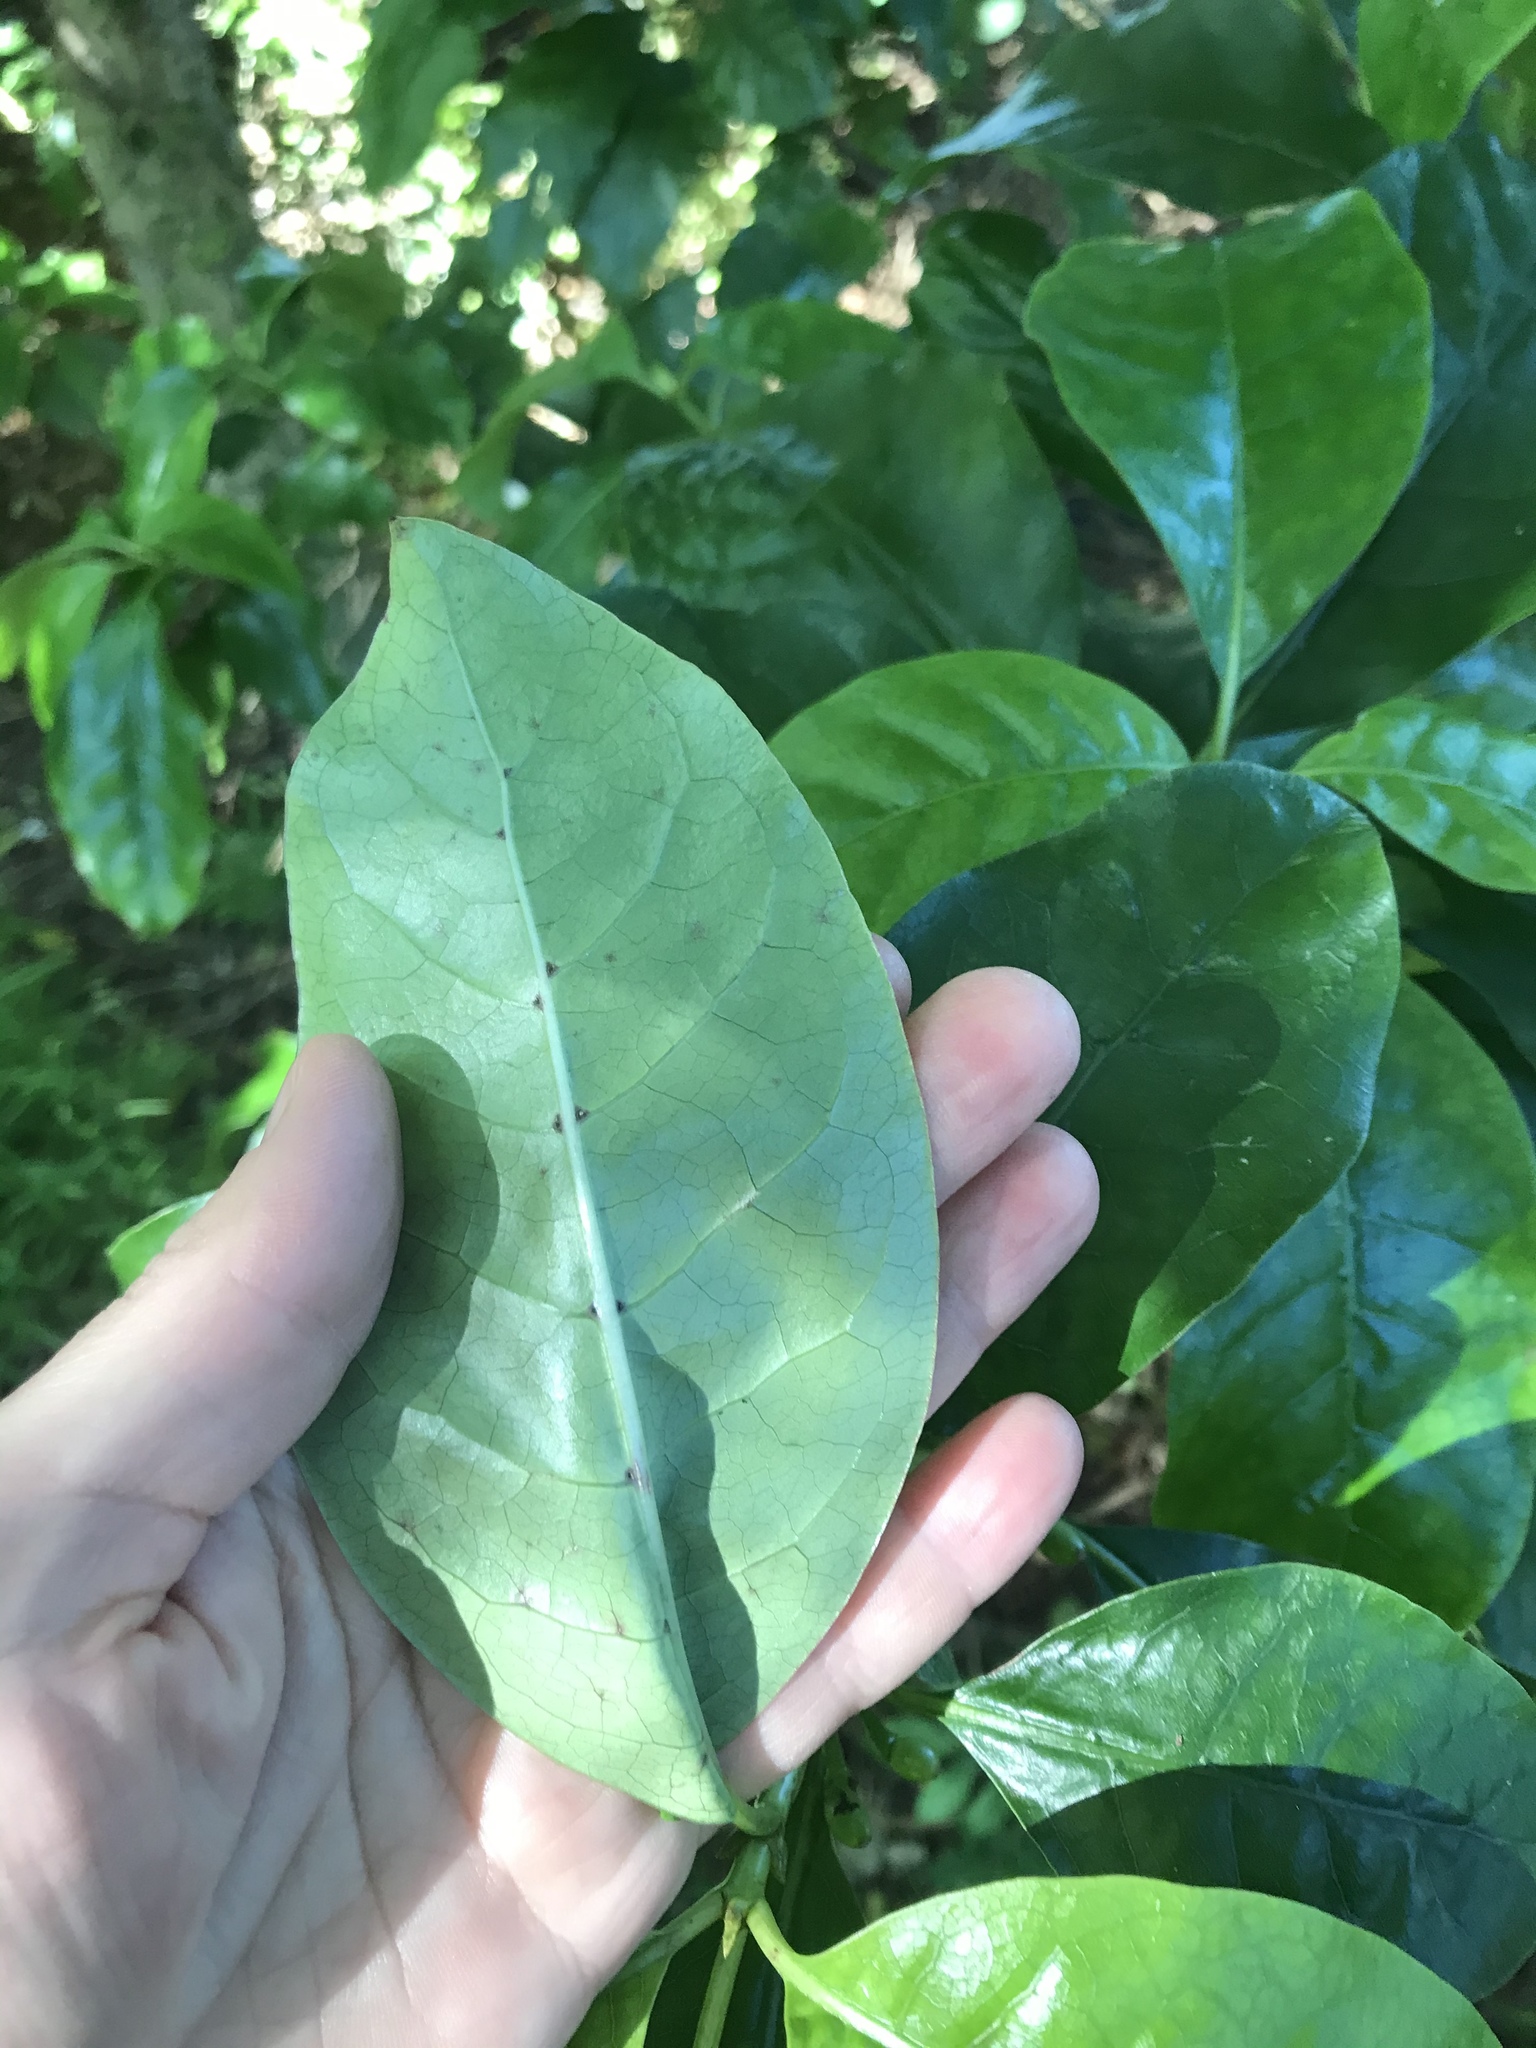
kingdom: Plantae
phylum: Tracheophyta
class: Magnoliopsida
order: Gentianales
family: Rubiaceae
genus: Coprosma
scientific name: Coprosma autumnalis
